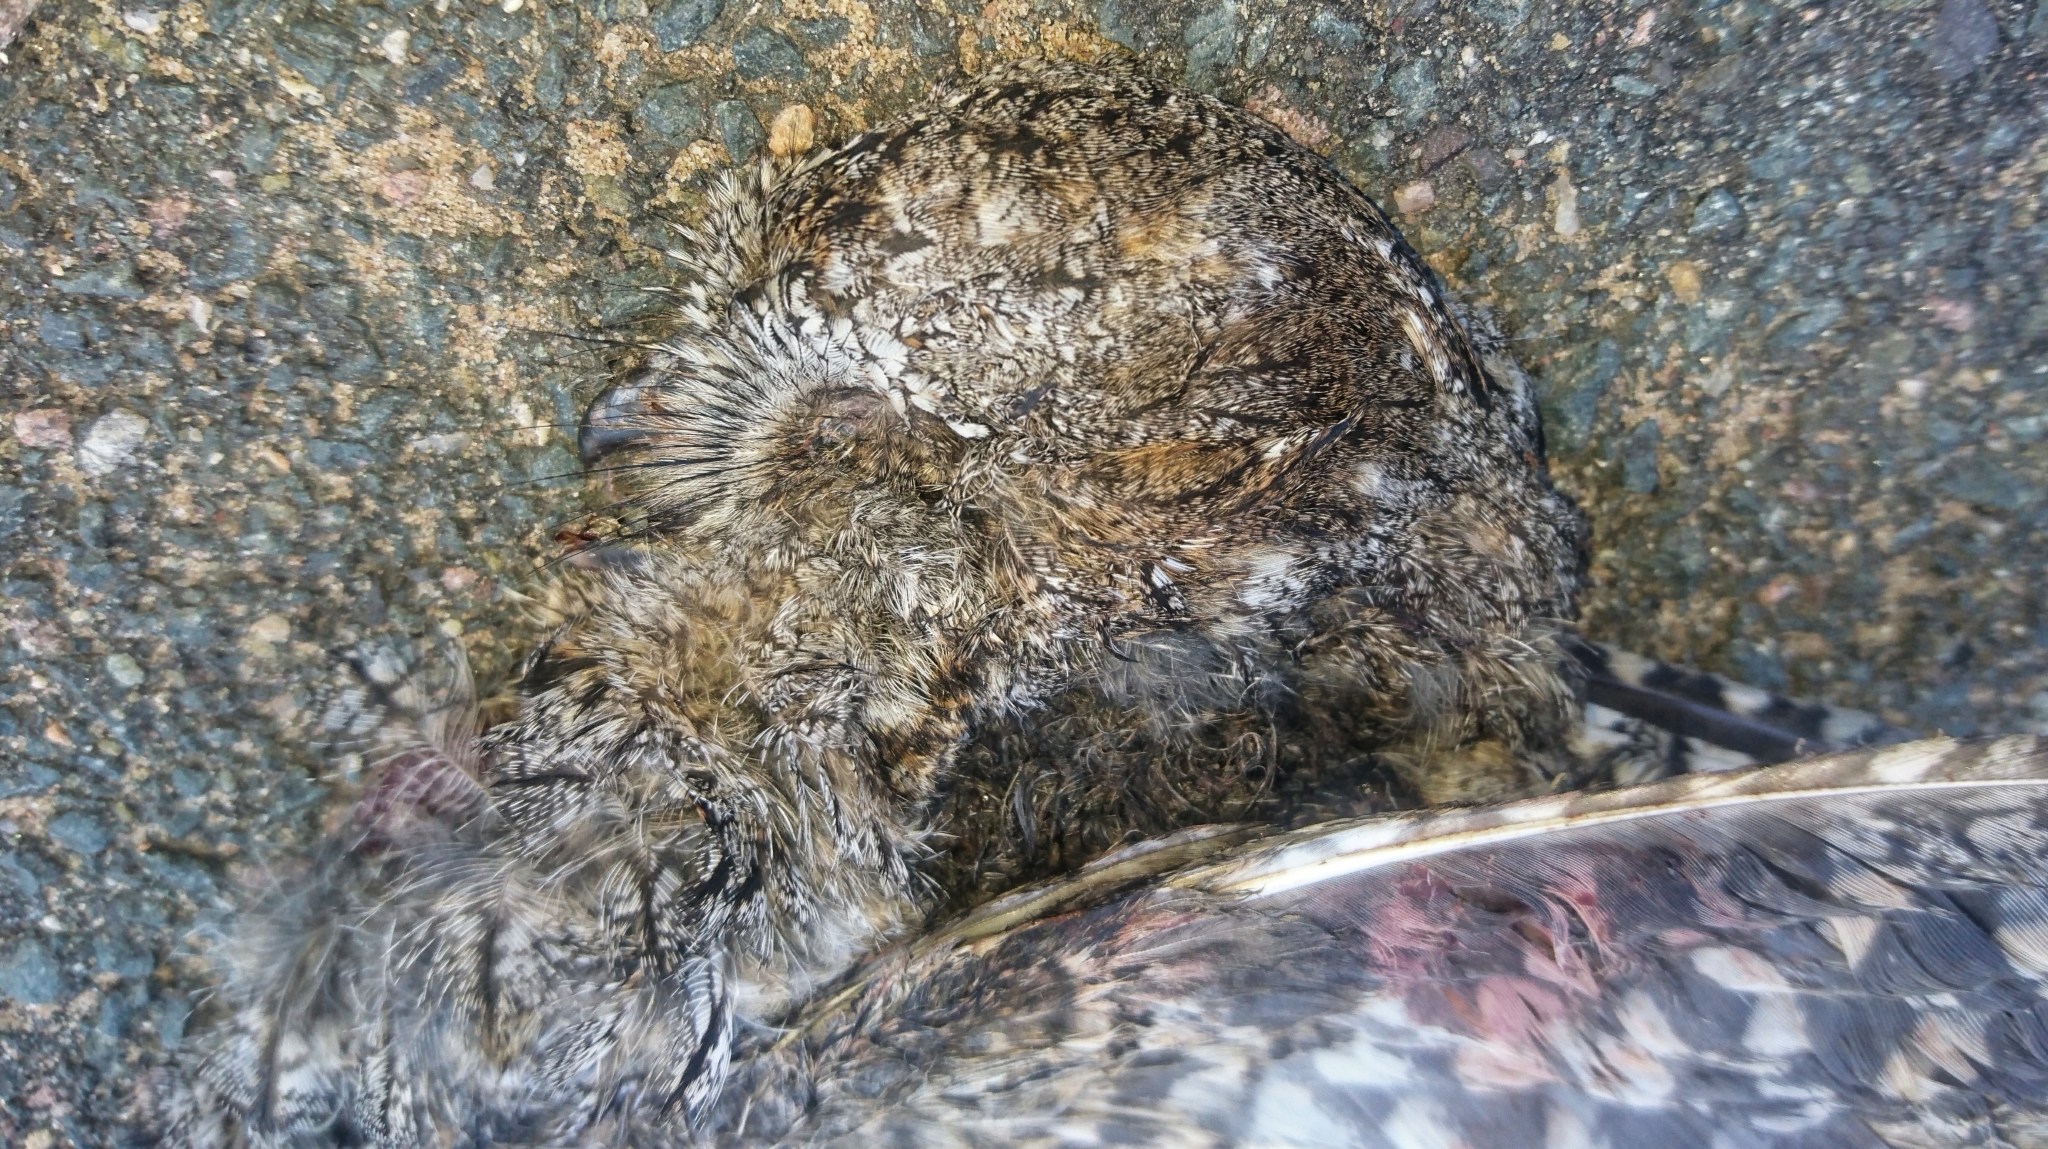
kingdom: Animalia
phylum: Chordata
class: Aves
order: Strigiformes
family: Strigidae
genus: Otus
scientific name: Otus senegalensis
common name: African scops owl
